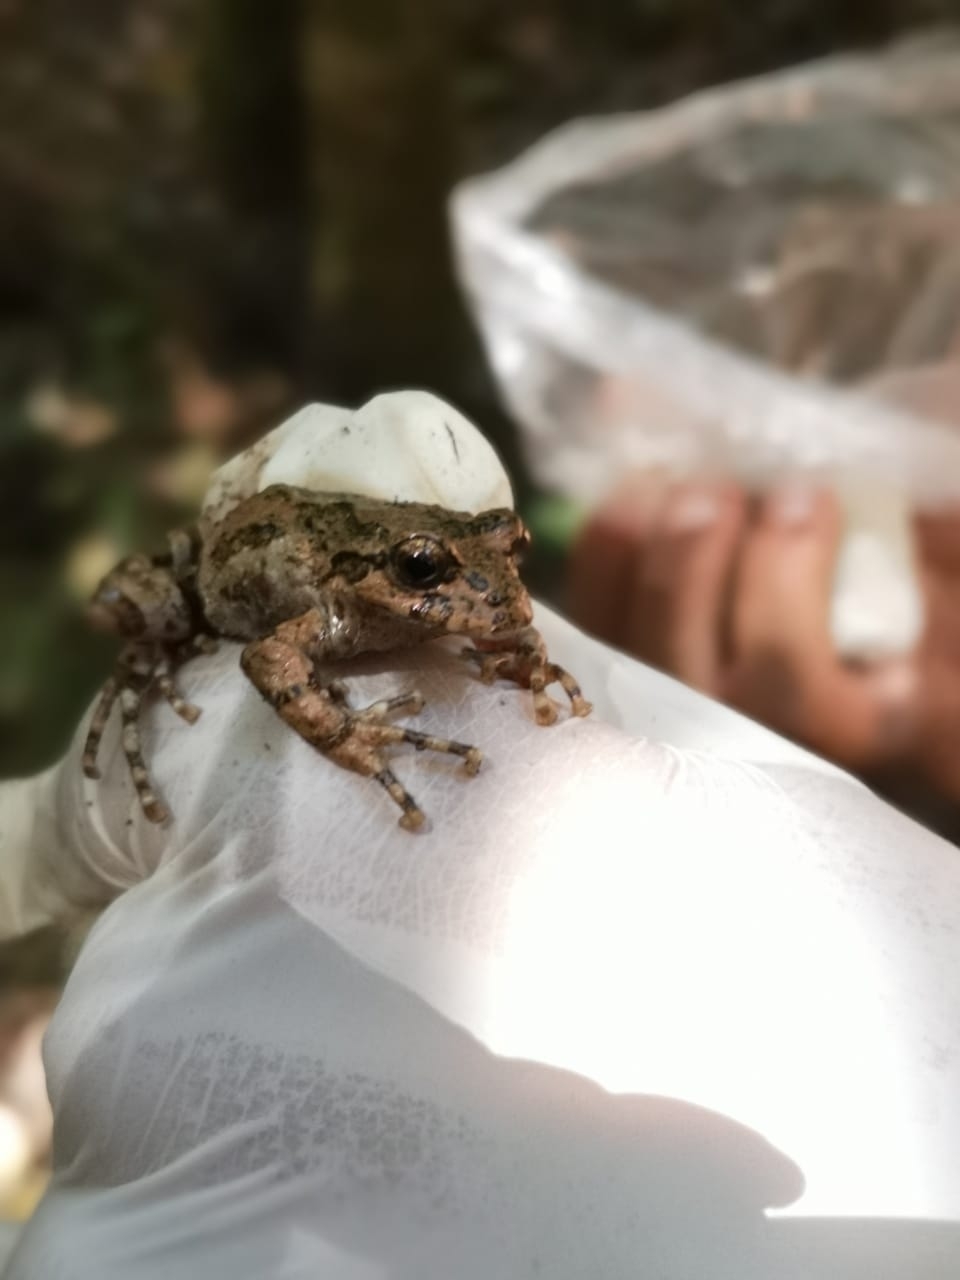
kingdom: Animalia
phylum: Chordata
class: Amphibia
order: Anura
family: Batrachylidae
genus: Batrachyla
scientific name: Batrachyla leptopus
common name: Gray wood frog
